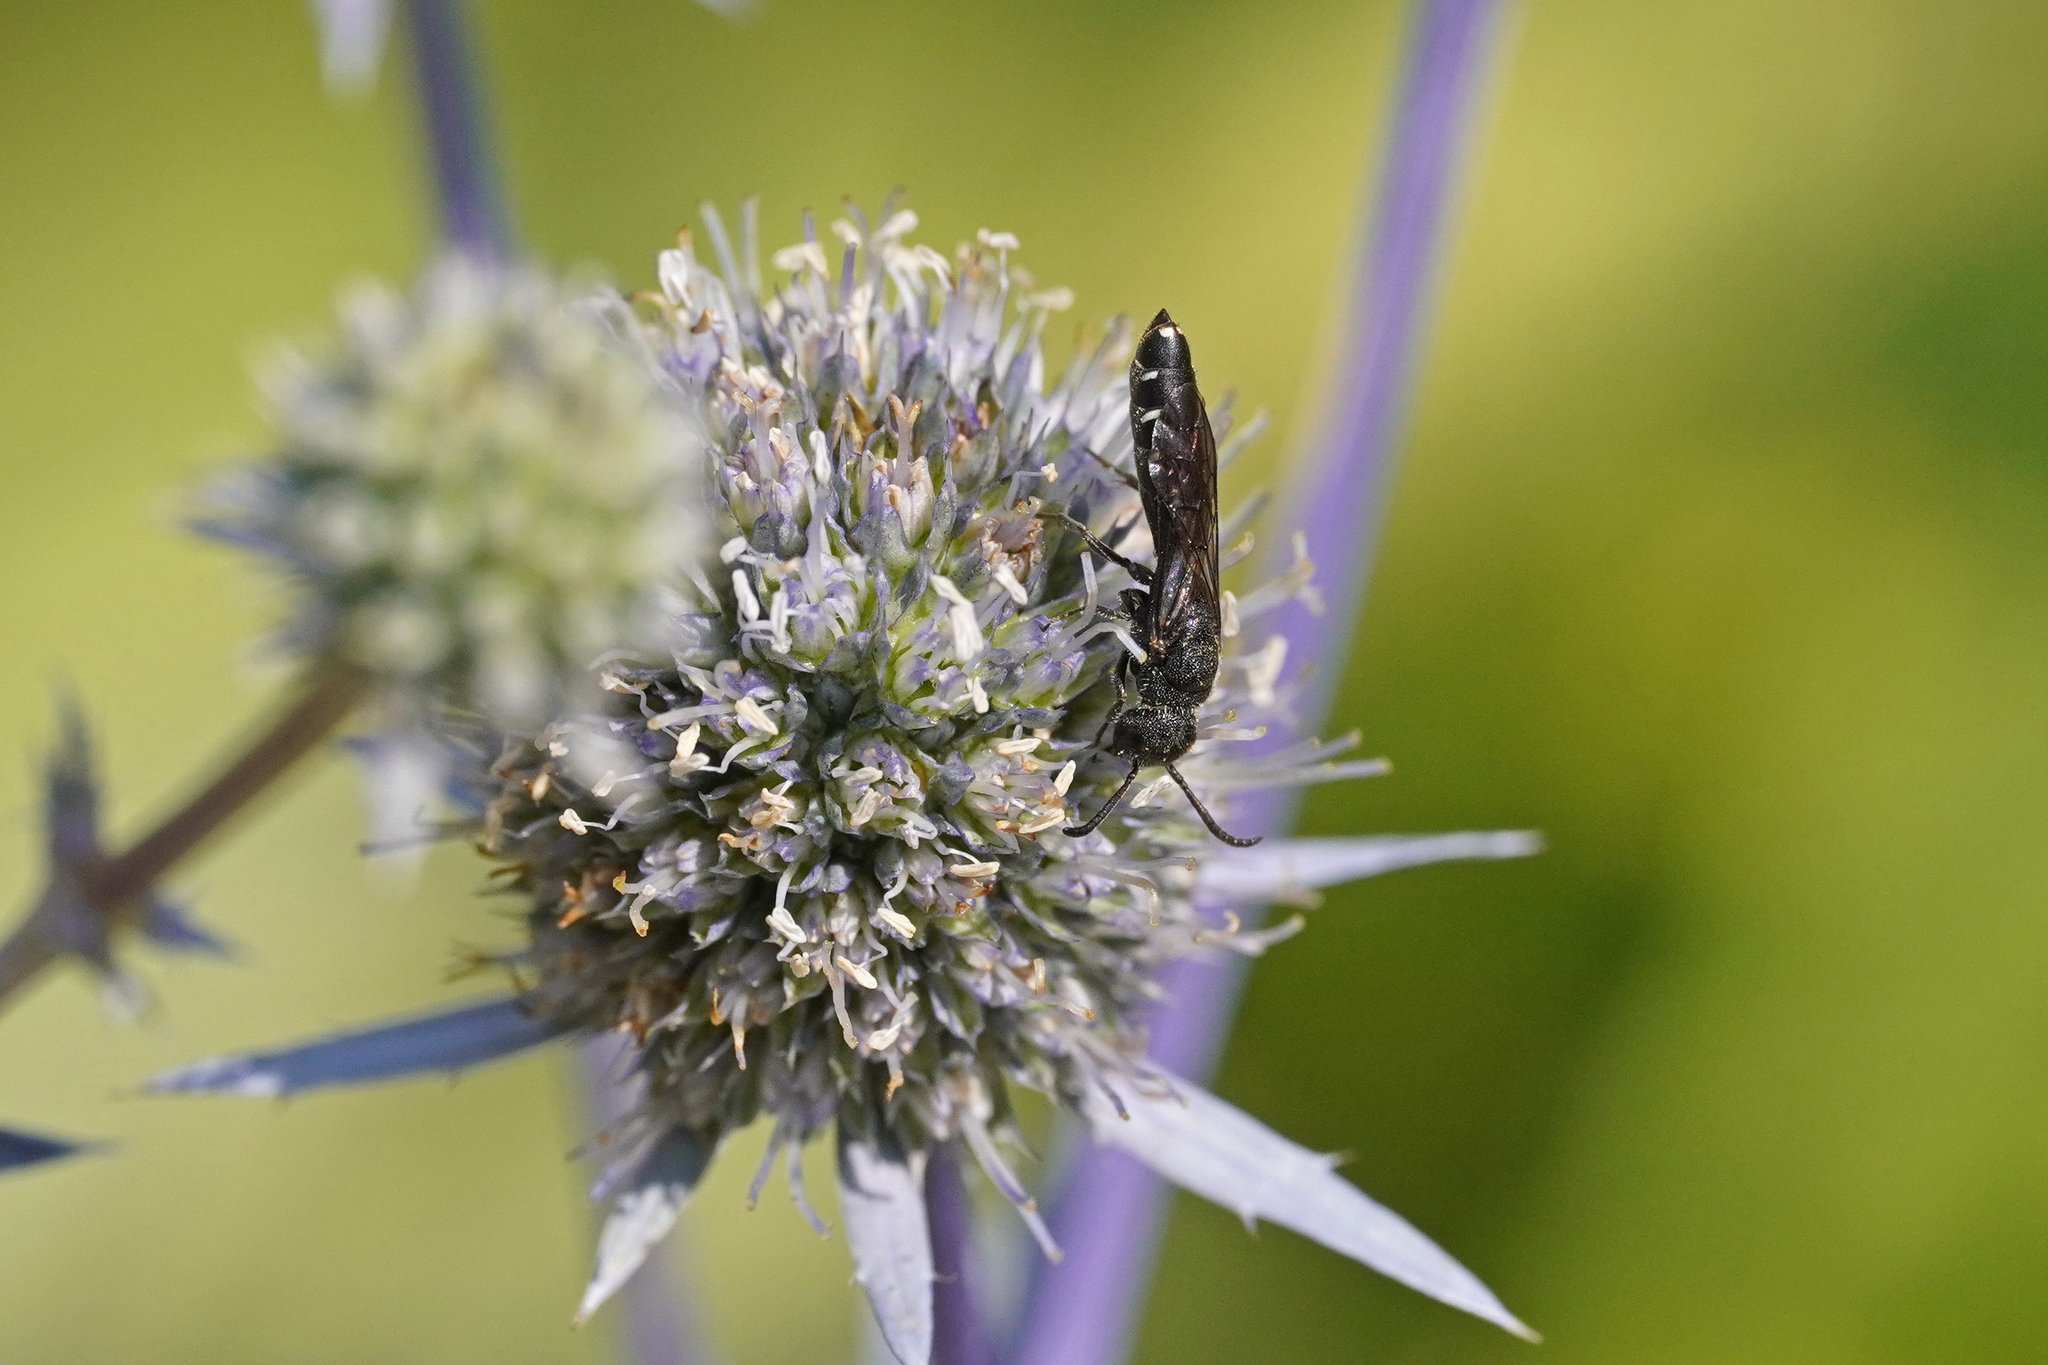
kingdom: Animalia
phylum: Arthropoda
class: Insecta
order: Hymenoptera
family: Sapygidae
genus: Sapygina
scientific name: Sapygina decemguttata
